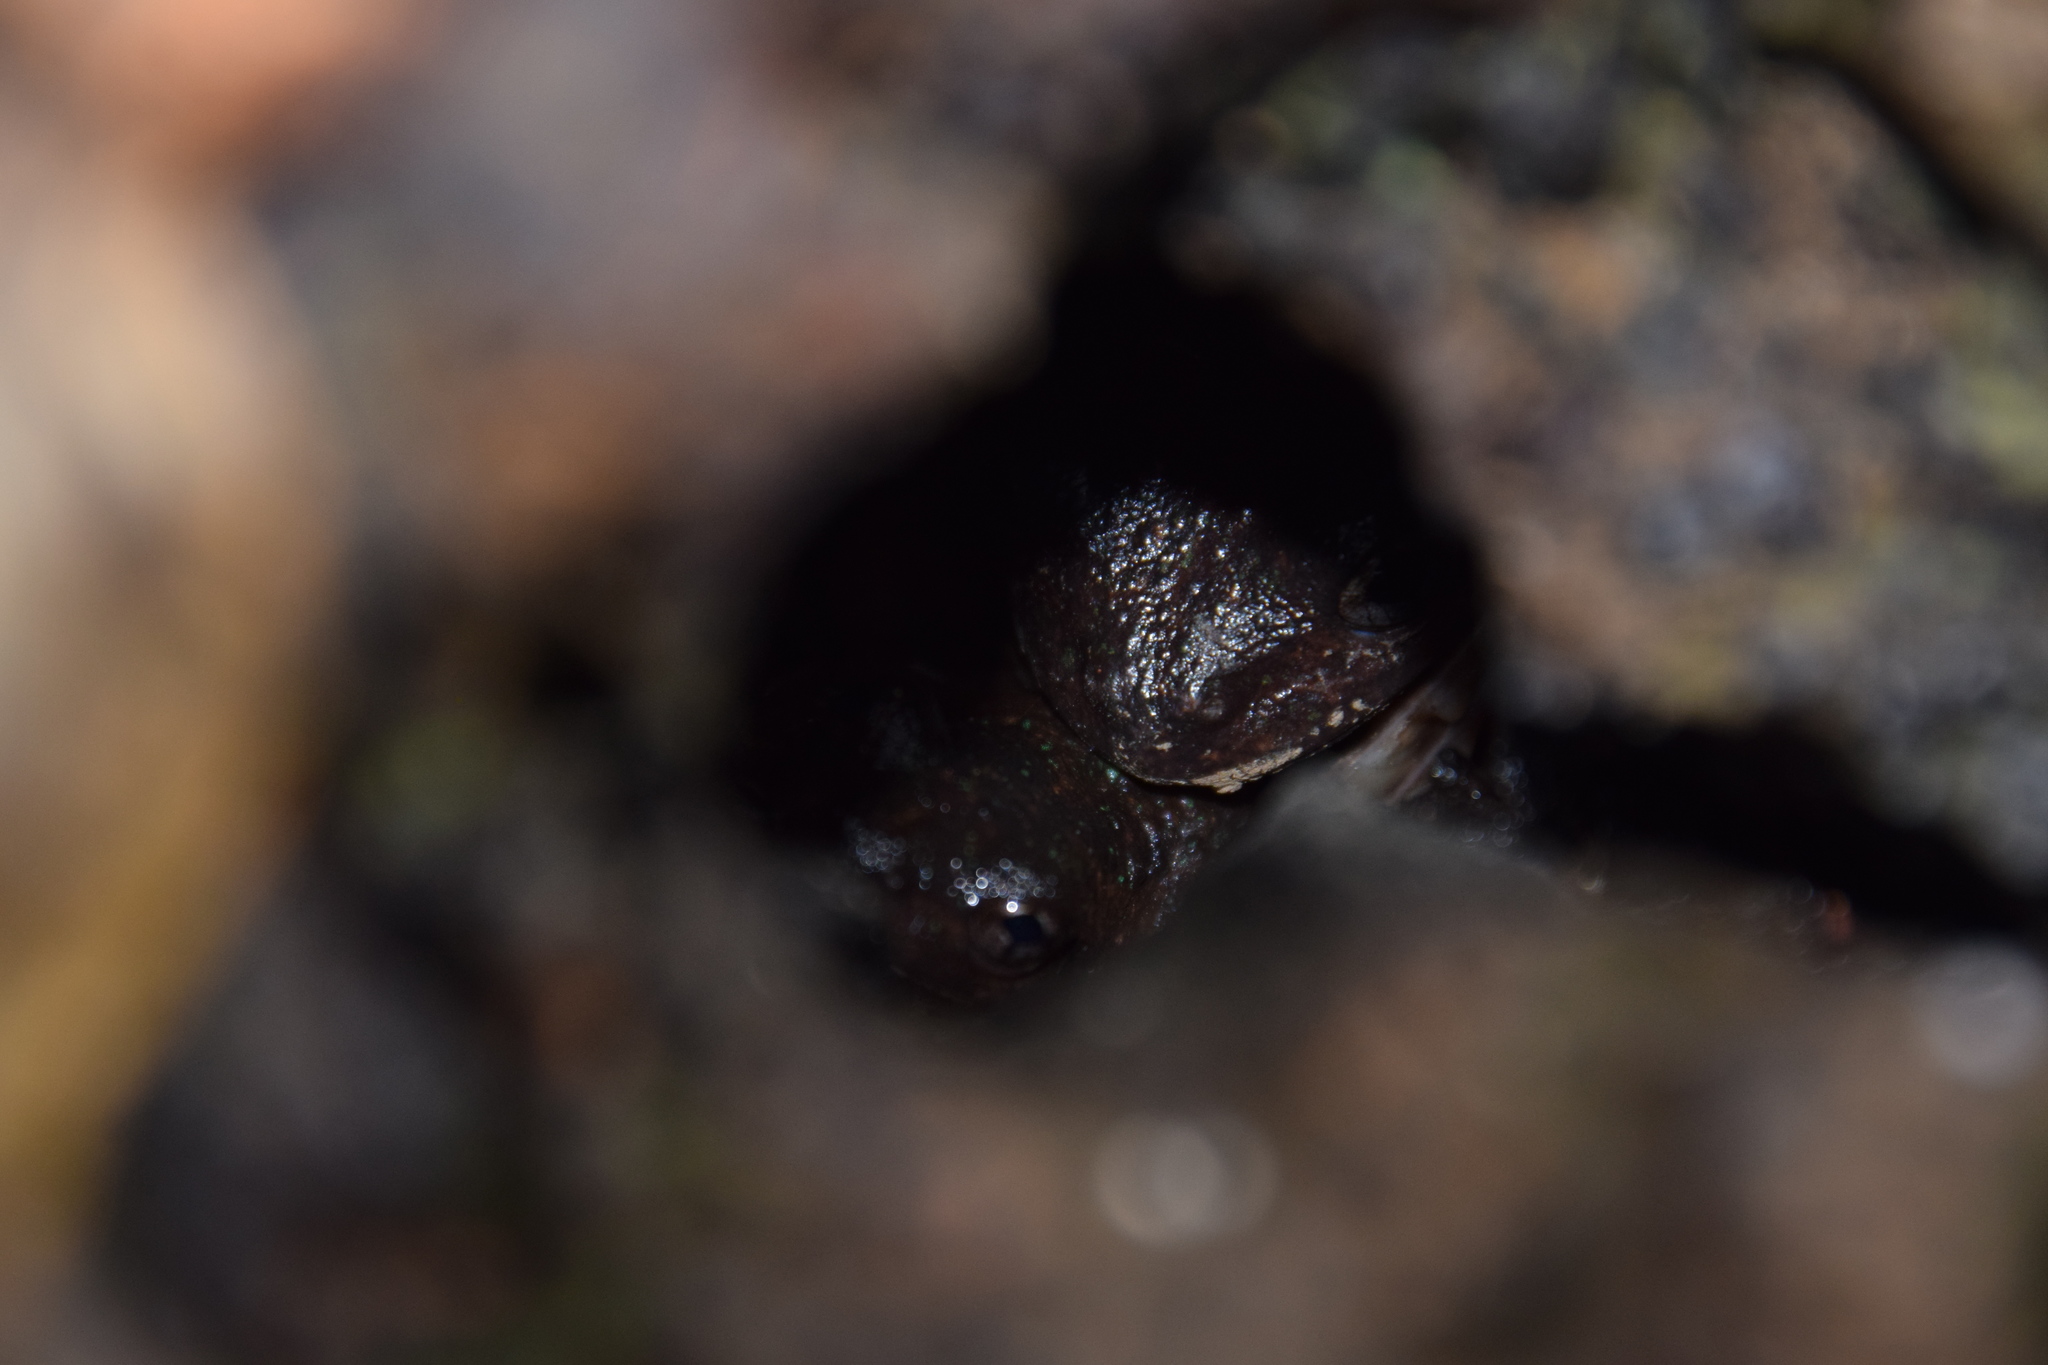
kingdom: Animalia
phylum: Chordata
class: Amphibia
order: Anura
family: Pelodryadidae
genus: Litoria
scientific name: Litoria peronii
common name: Emerald spotted treefrog
